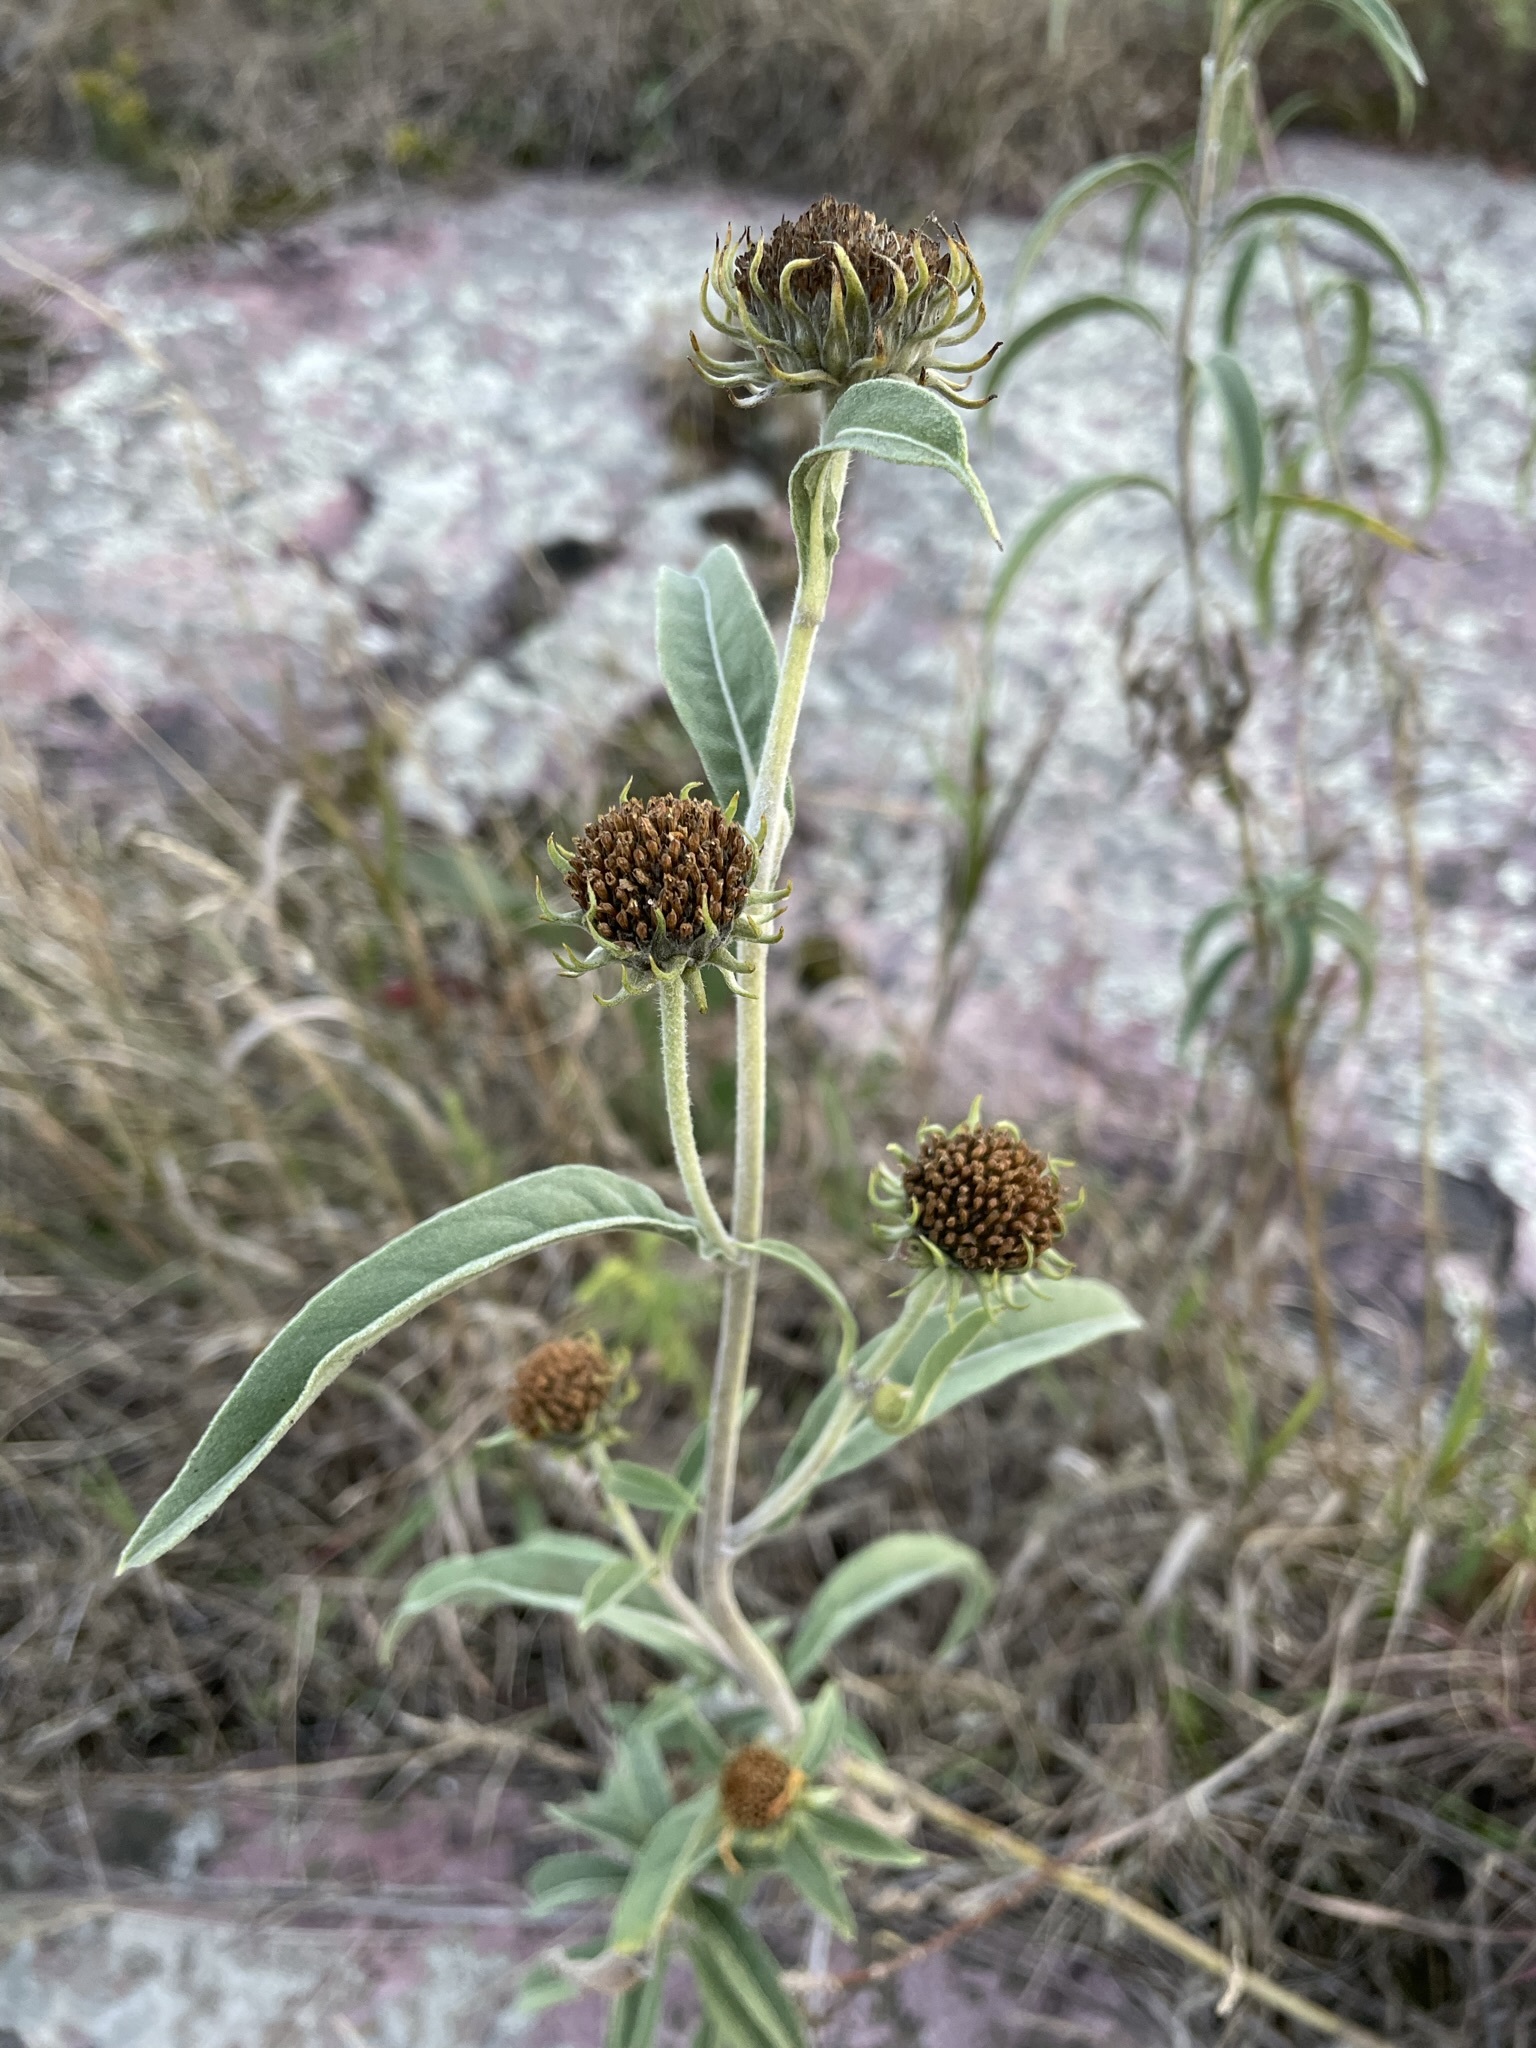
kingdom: Plantae
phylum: Tracheophyta
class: Magnoliopsida
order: Asterales
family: Asteraceae
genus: Helianthus
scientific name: Helianthus maximiliani
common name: Maximilian's sunflower
